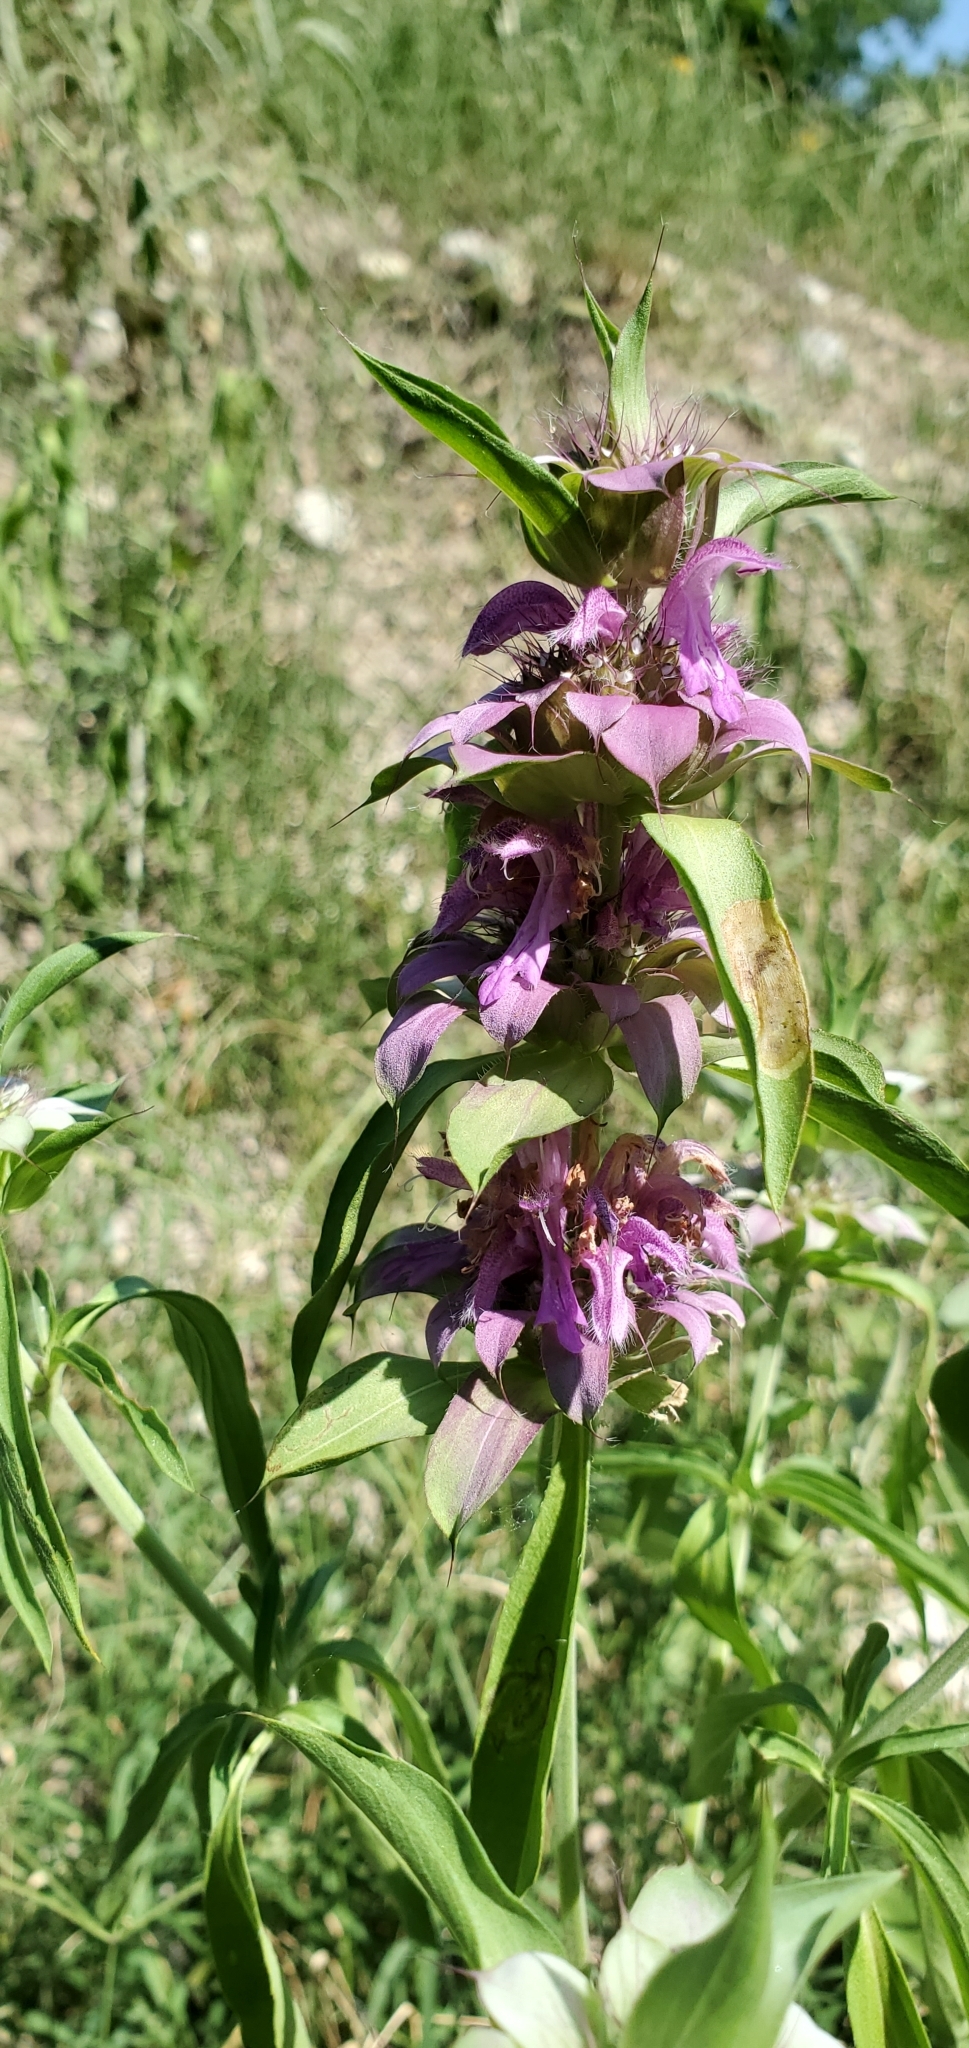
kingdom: Plantae
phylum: Tracheophyta
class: Magnoliopsida
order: Lamiales
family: Lamiaceae
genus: Monarda
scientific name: Monarda citriodora
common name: Lemon beebalm
